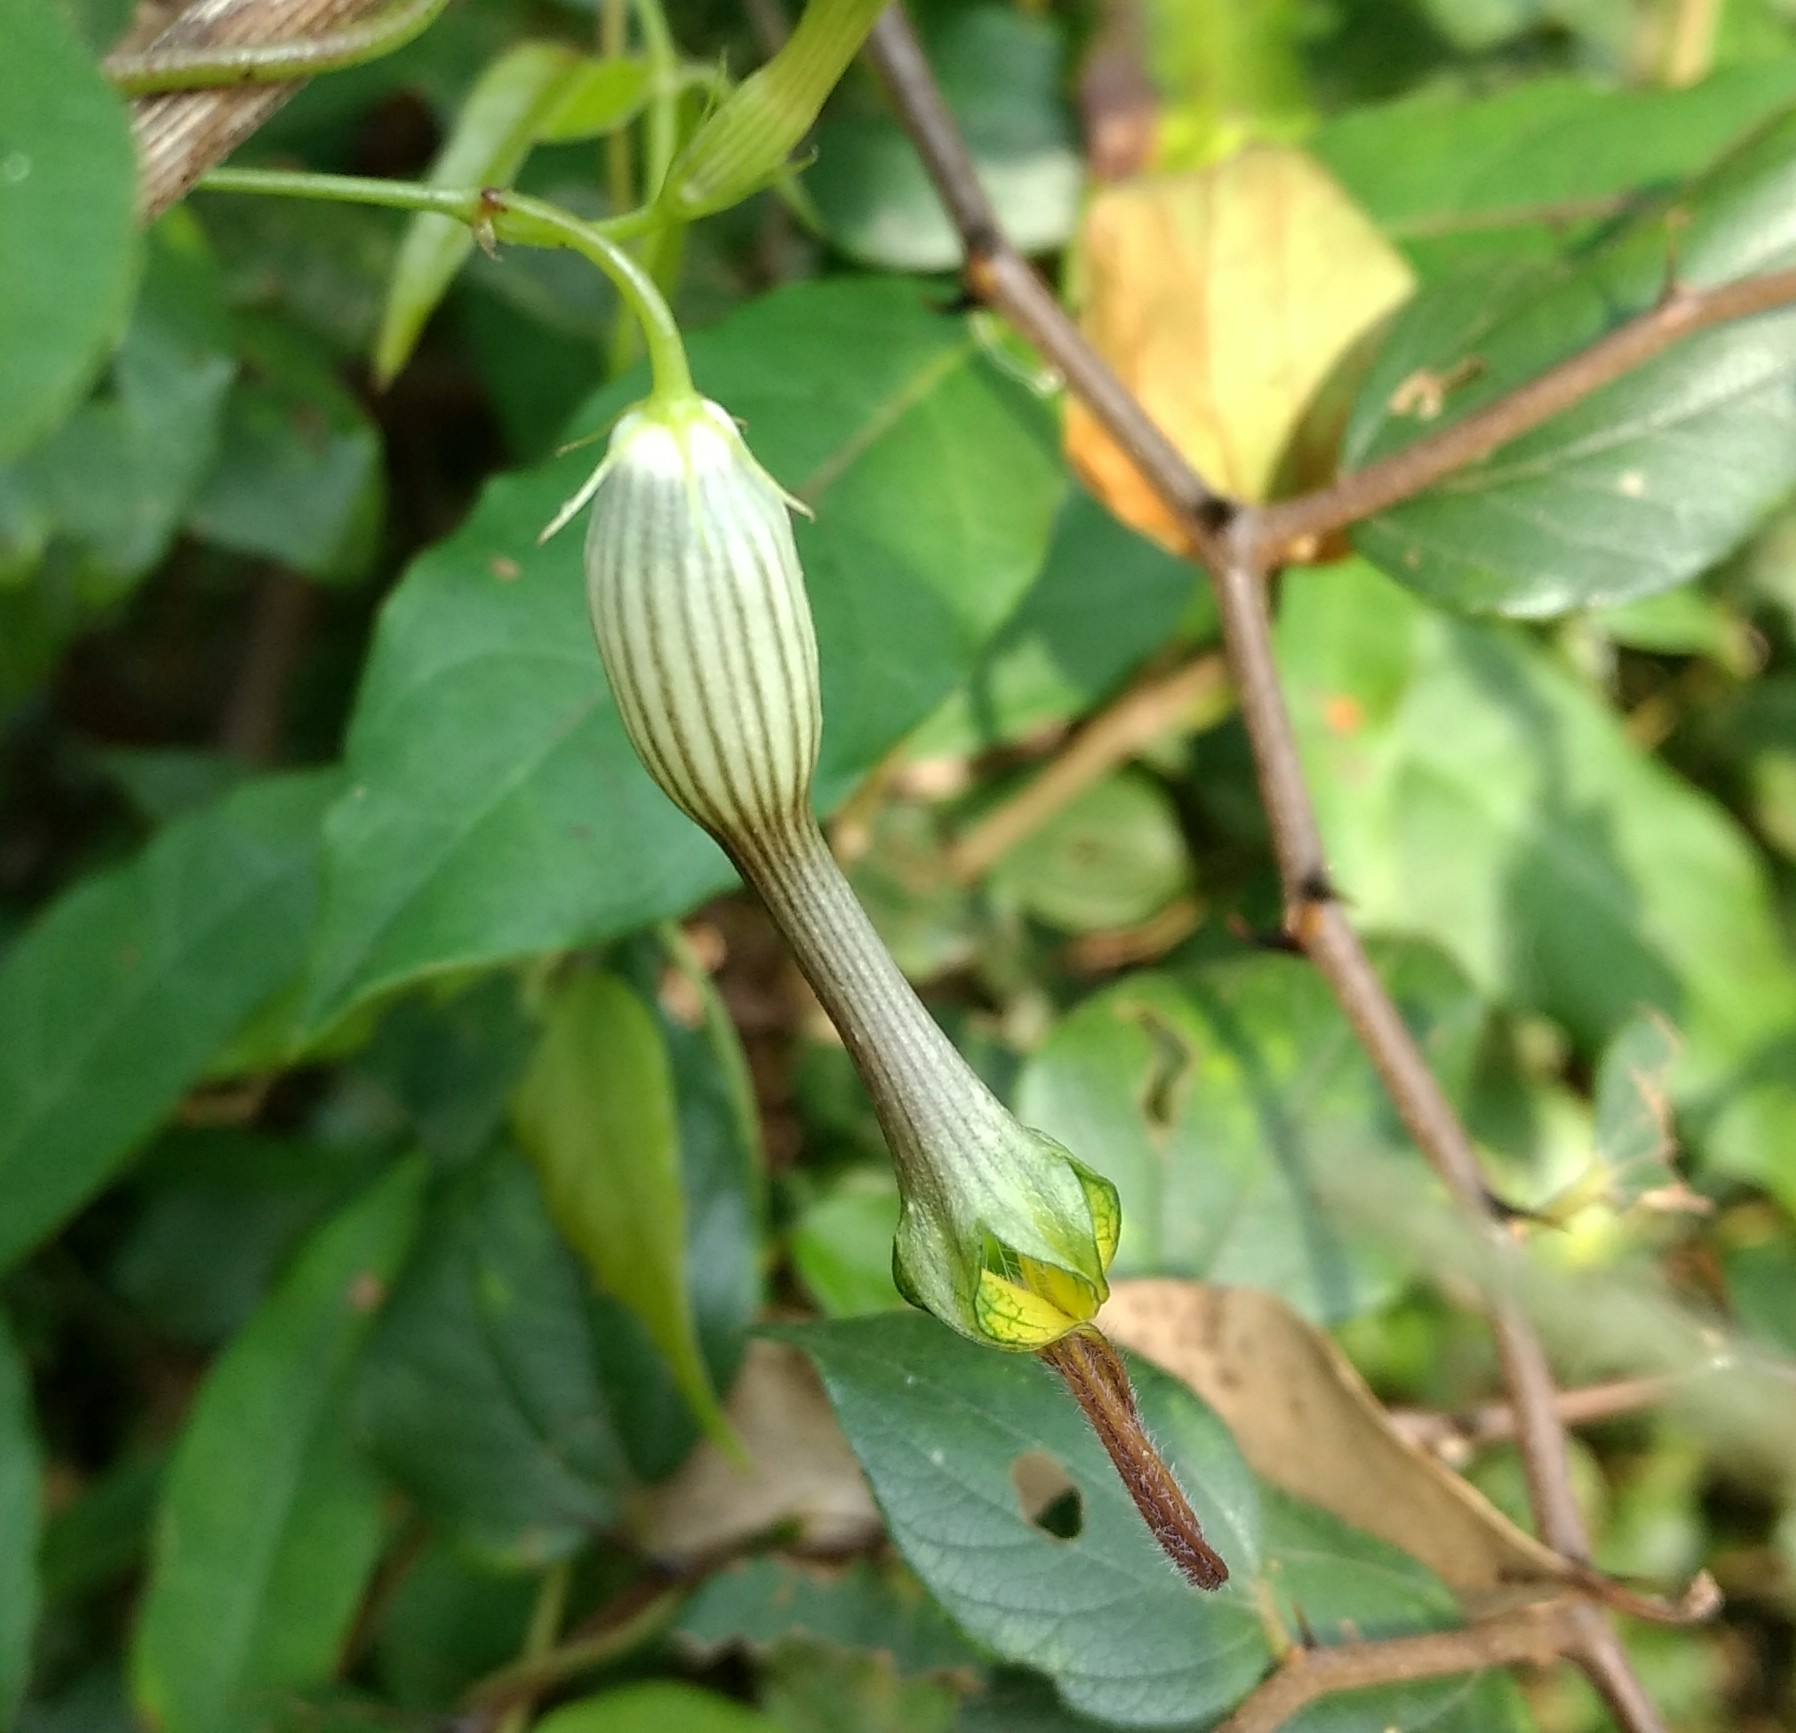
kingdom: Plantae
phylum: Tracheophyta
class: Magnoliopsida
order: Gentianales
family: Apocynaceae
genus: Ceropegia
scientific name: Ceropegia candelabrum
